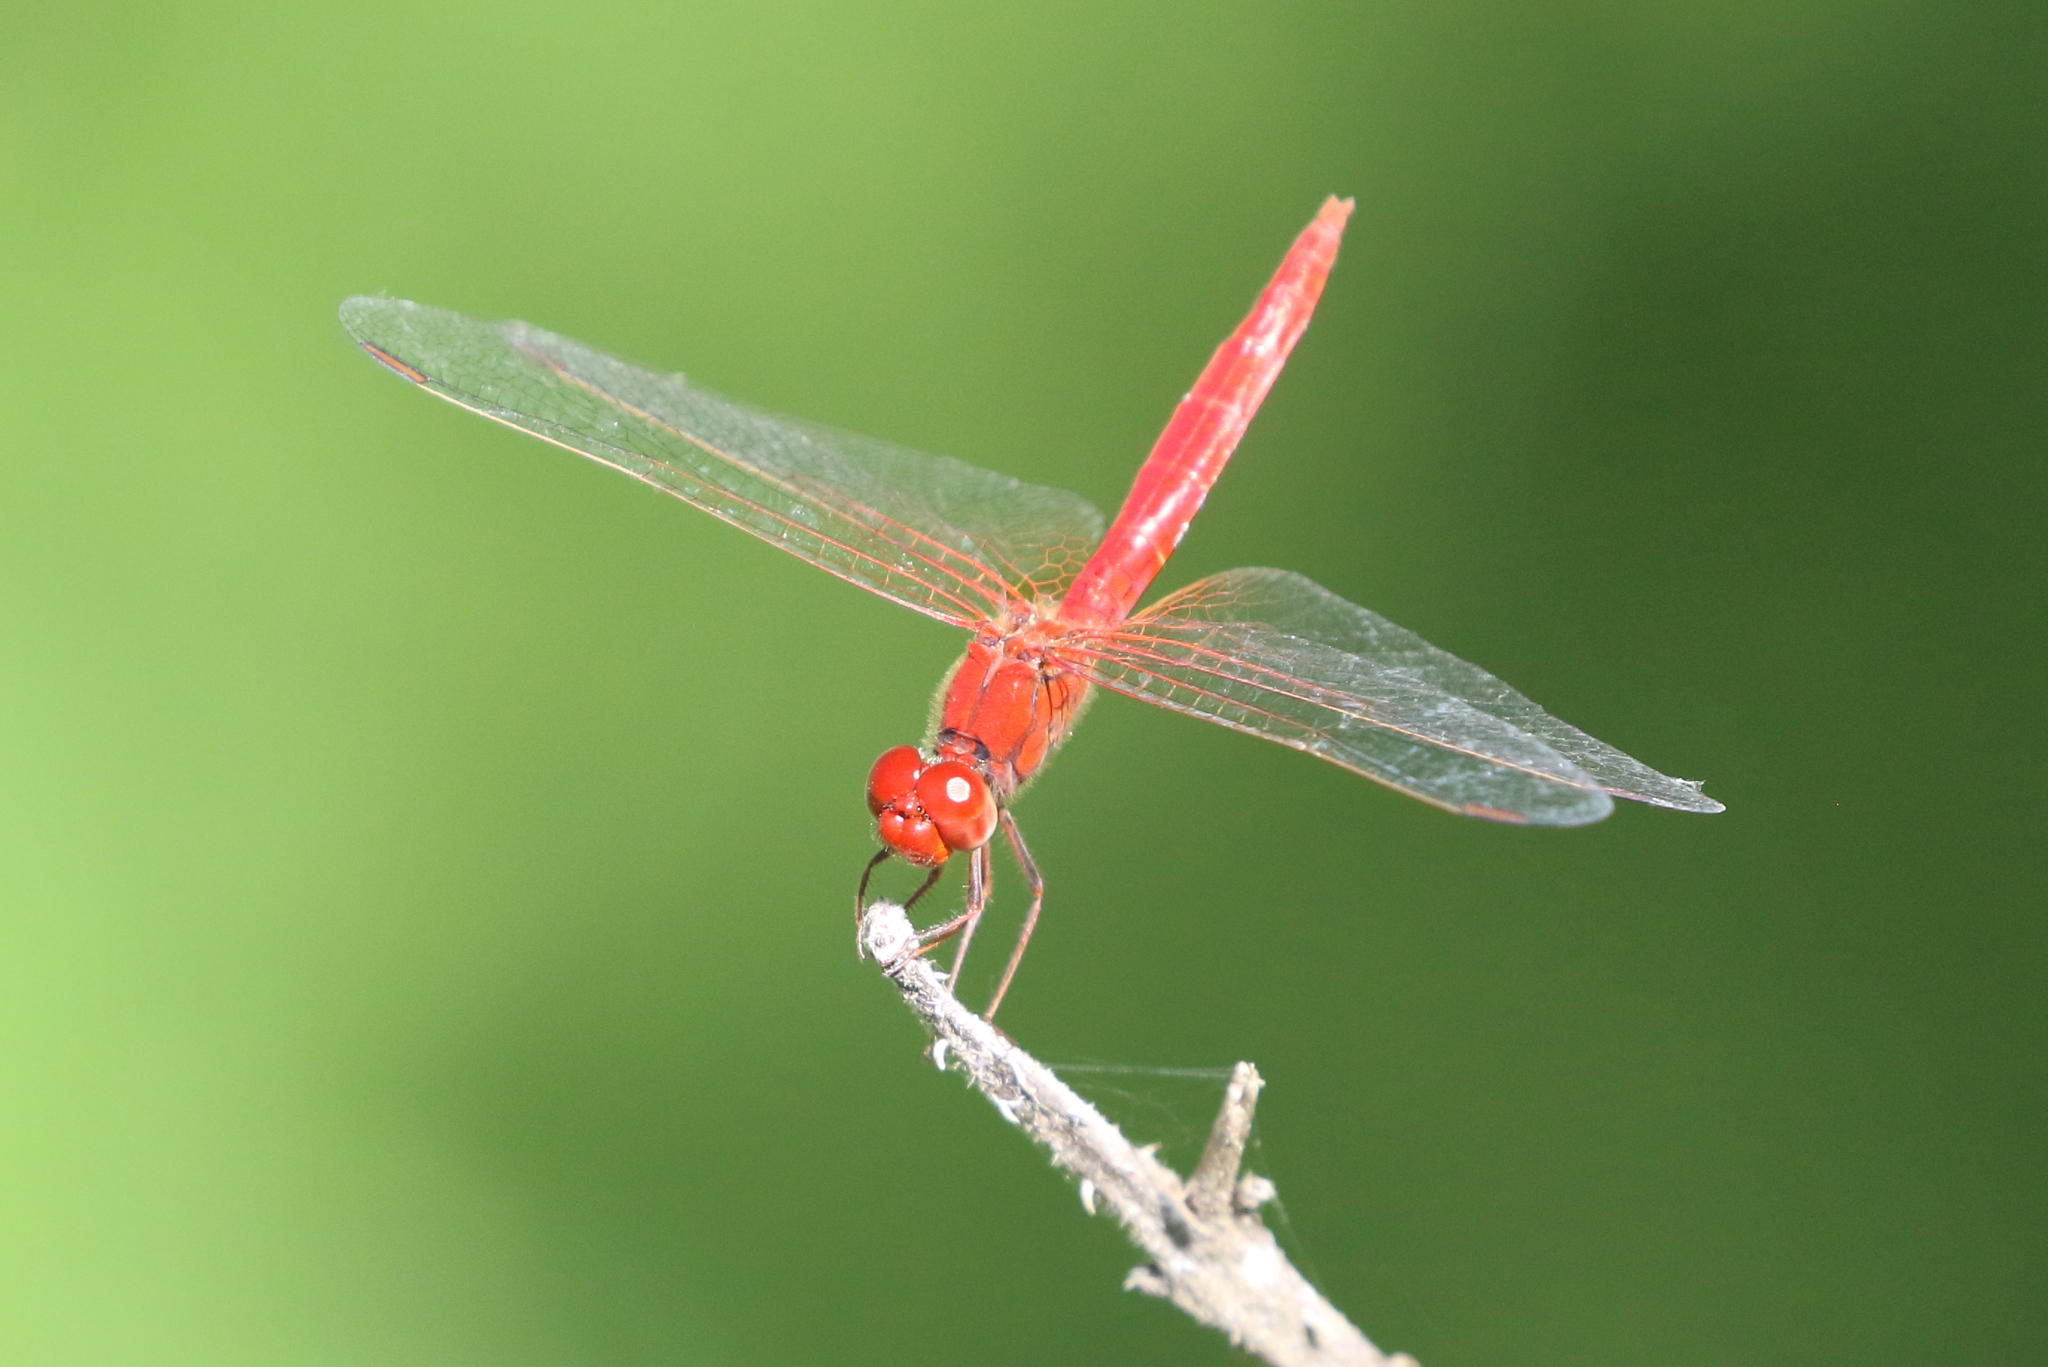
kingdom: Animalia
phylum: Arthropoda
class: Insecta
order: Odonata
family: Libellulidae
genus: Diplacodes
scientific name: Diplacodes haematodes
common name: Scarlet percher
